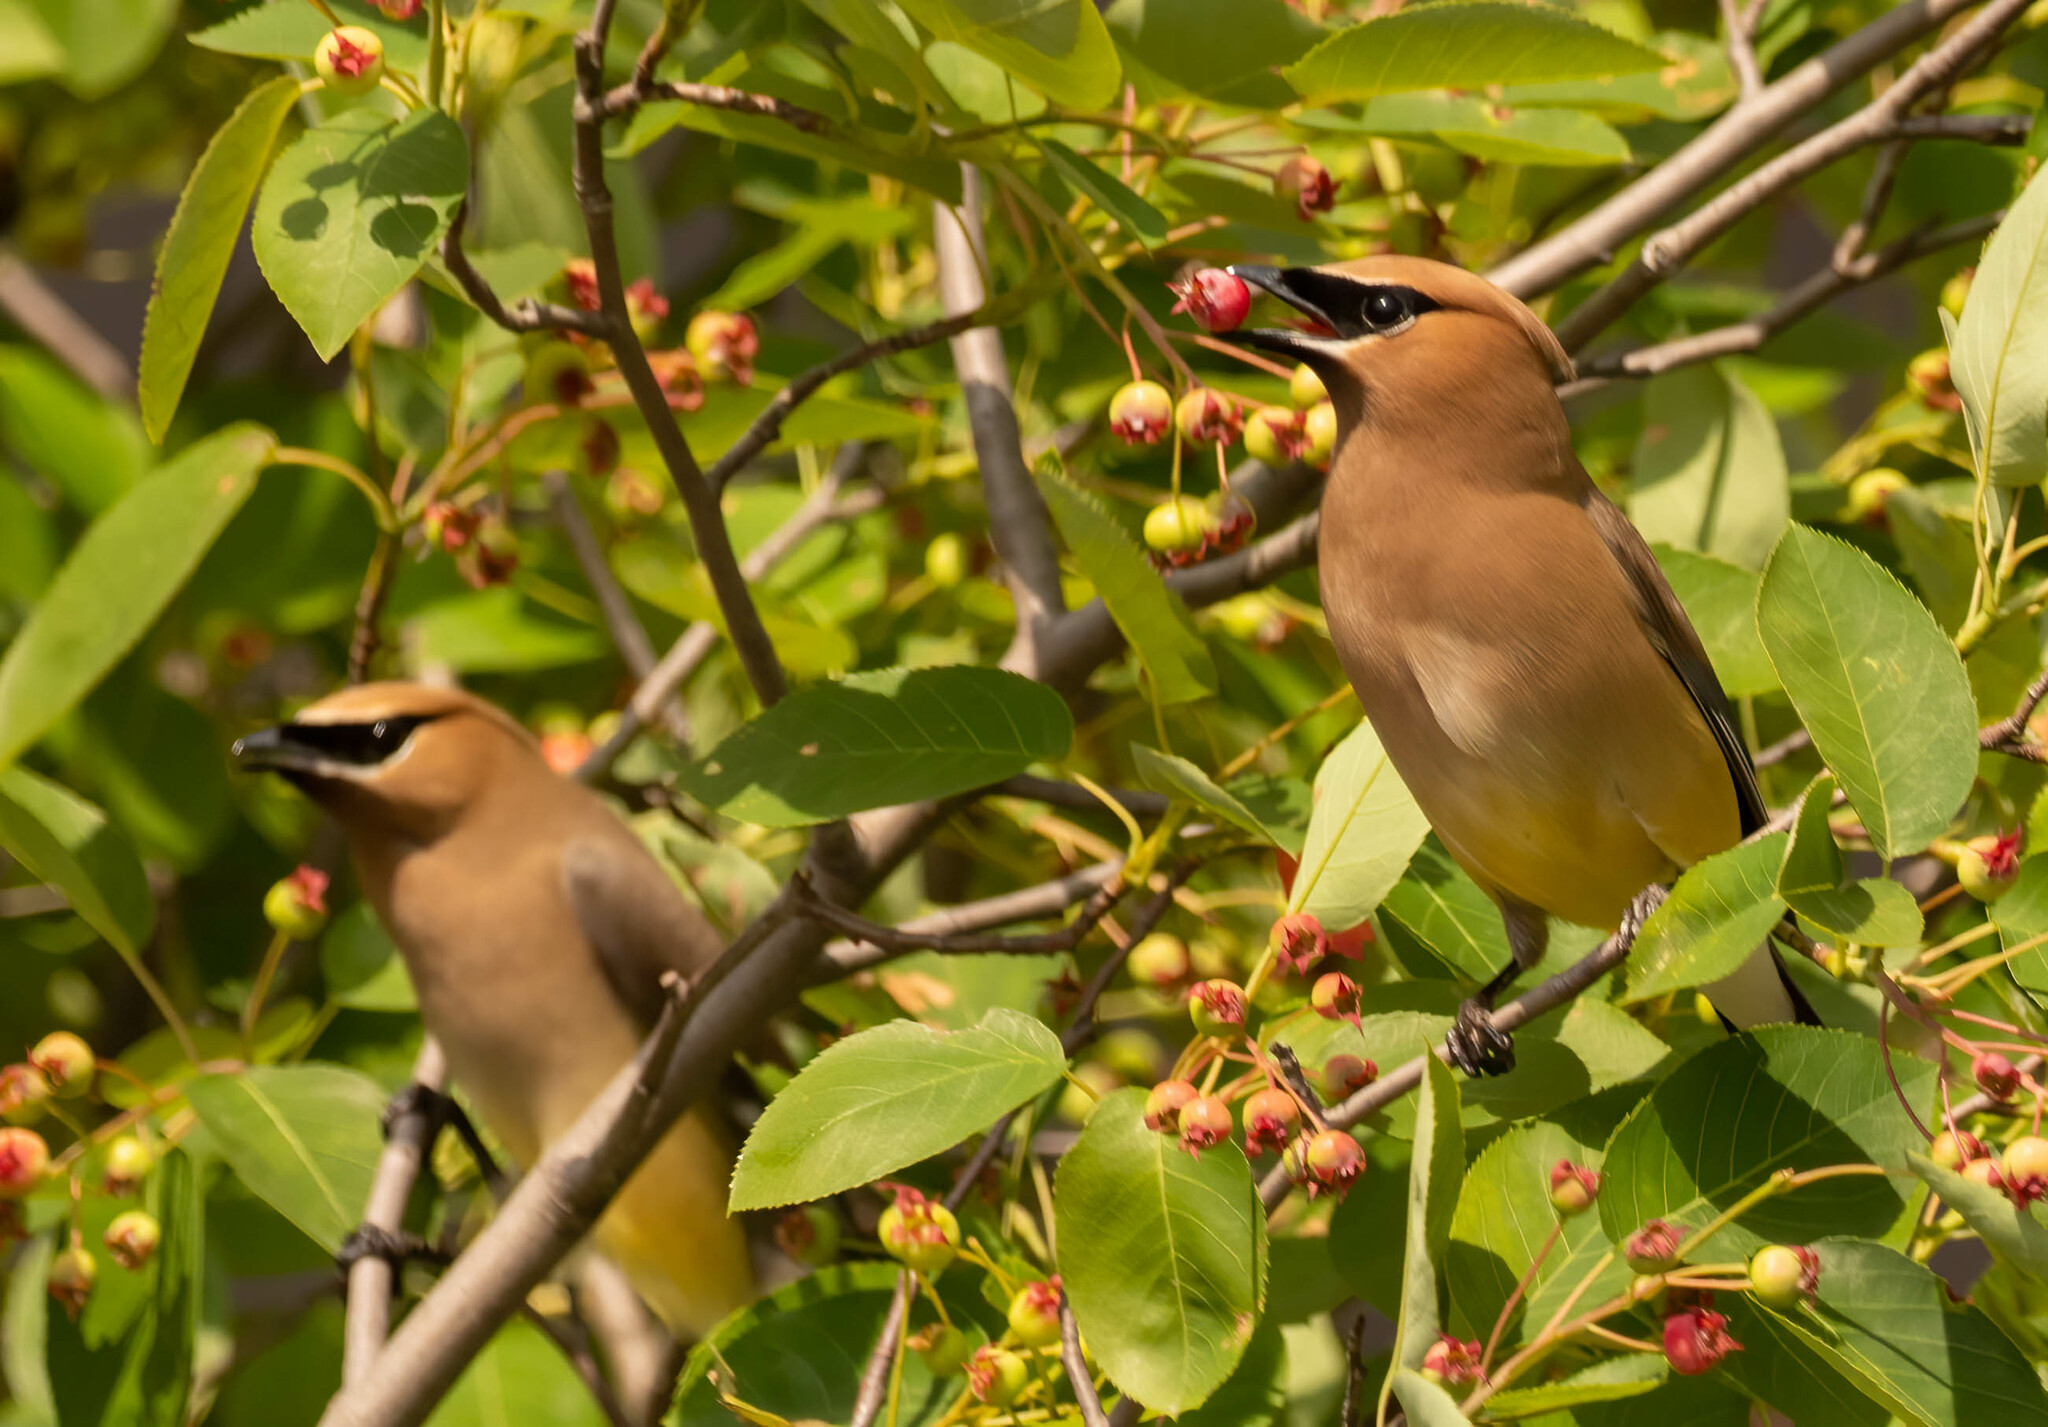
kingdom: Animalia
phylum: Chordata
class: Aves
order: Passeriformes
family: Bombycillidae
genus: Bombycilla
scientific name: Bombycilla cedrorum
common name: Cedar waxwing
